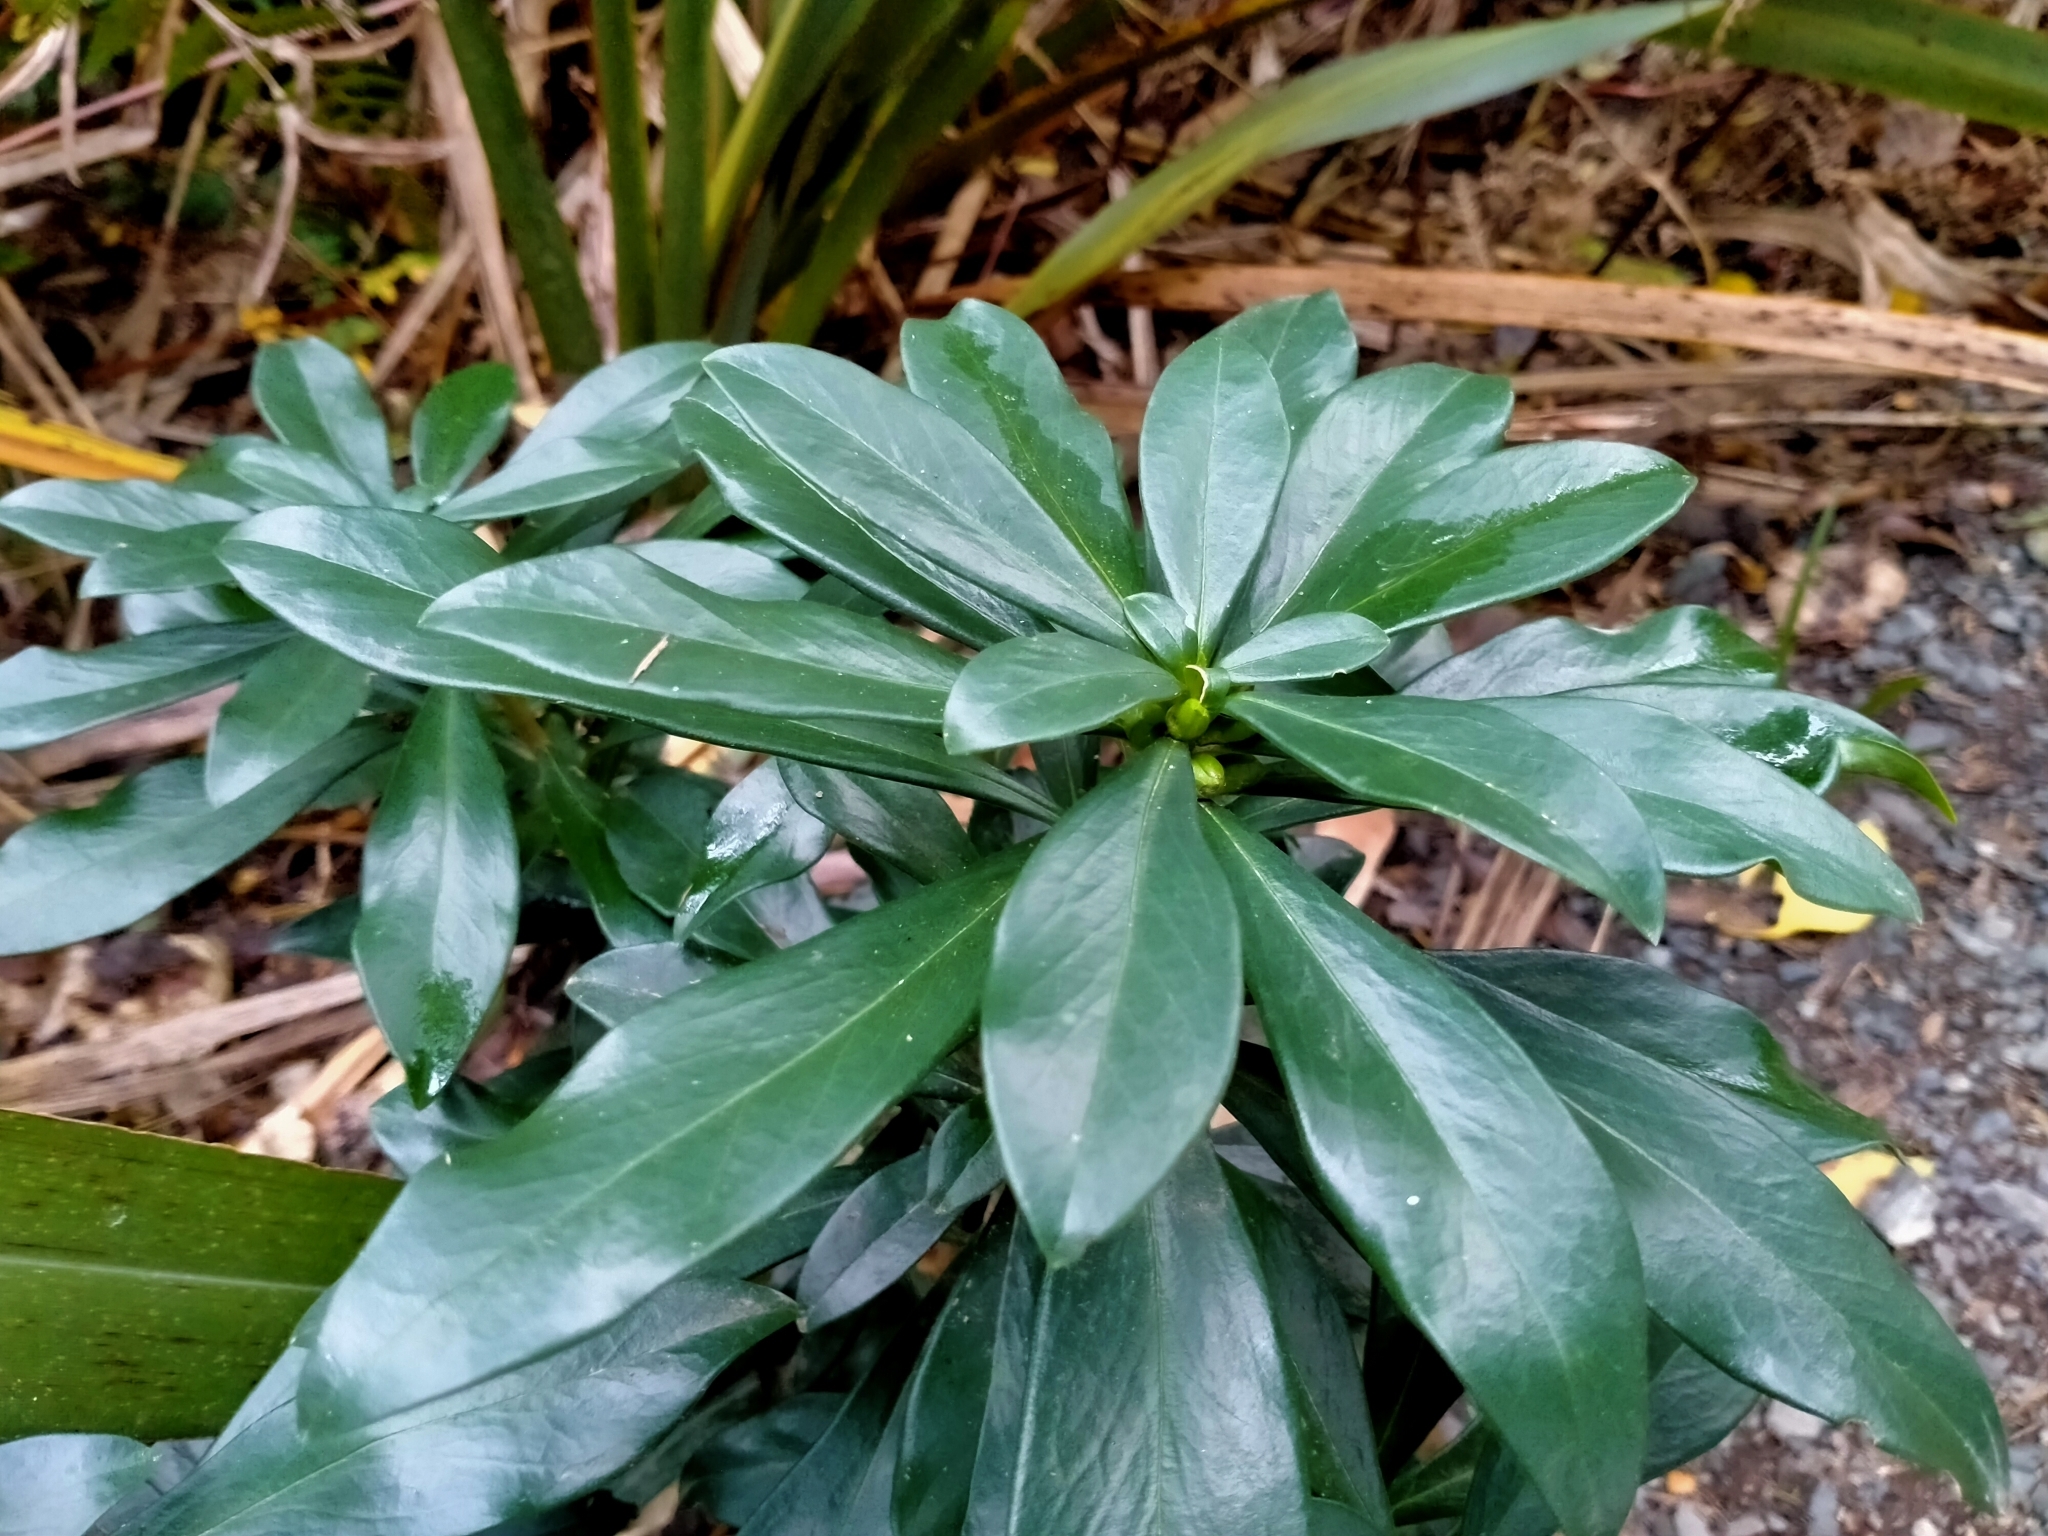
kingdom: Plantae
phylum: Tracheophyta
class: Magnoliopsida
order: Malvales
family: Thymelaeaceae
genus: Daphne
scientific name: Daphne laureola
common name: Spurge-laurel
